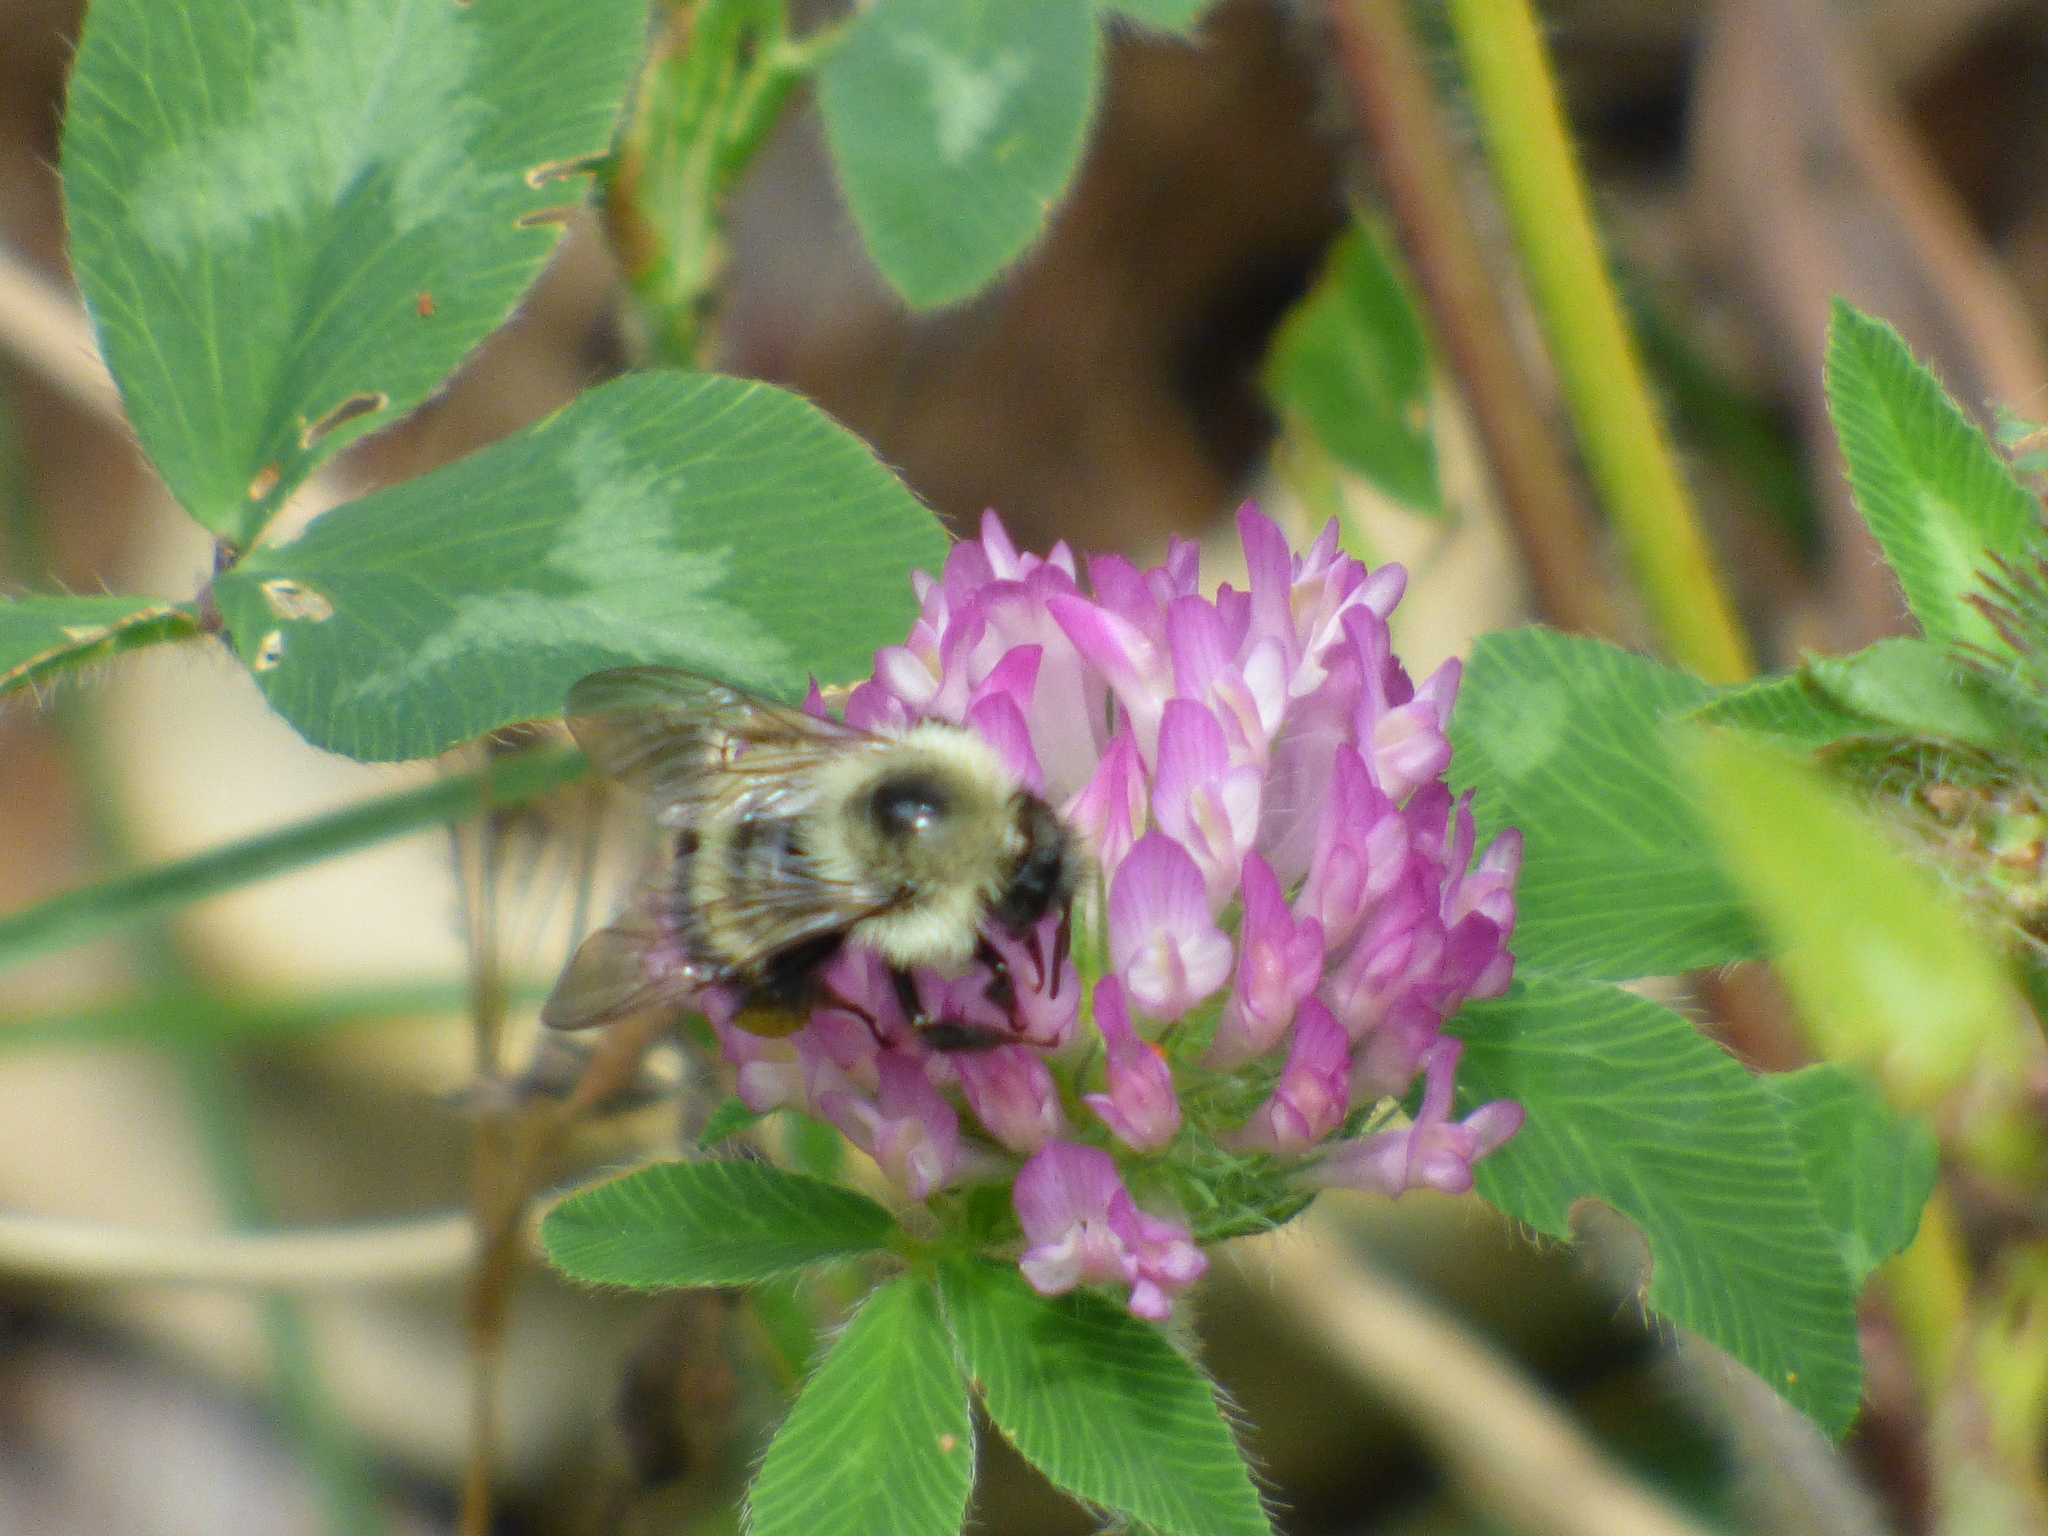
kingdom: Animalia
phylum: Arthropoda
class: Insecta
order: Hymenoptera
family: Apidae
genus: Pyrobombus
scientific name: Pyrobombus
